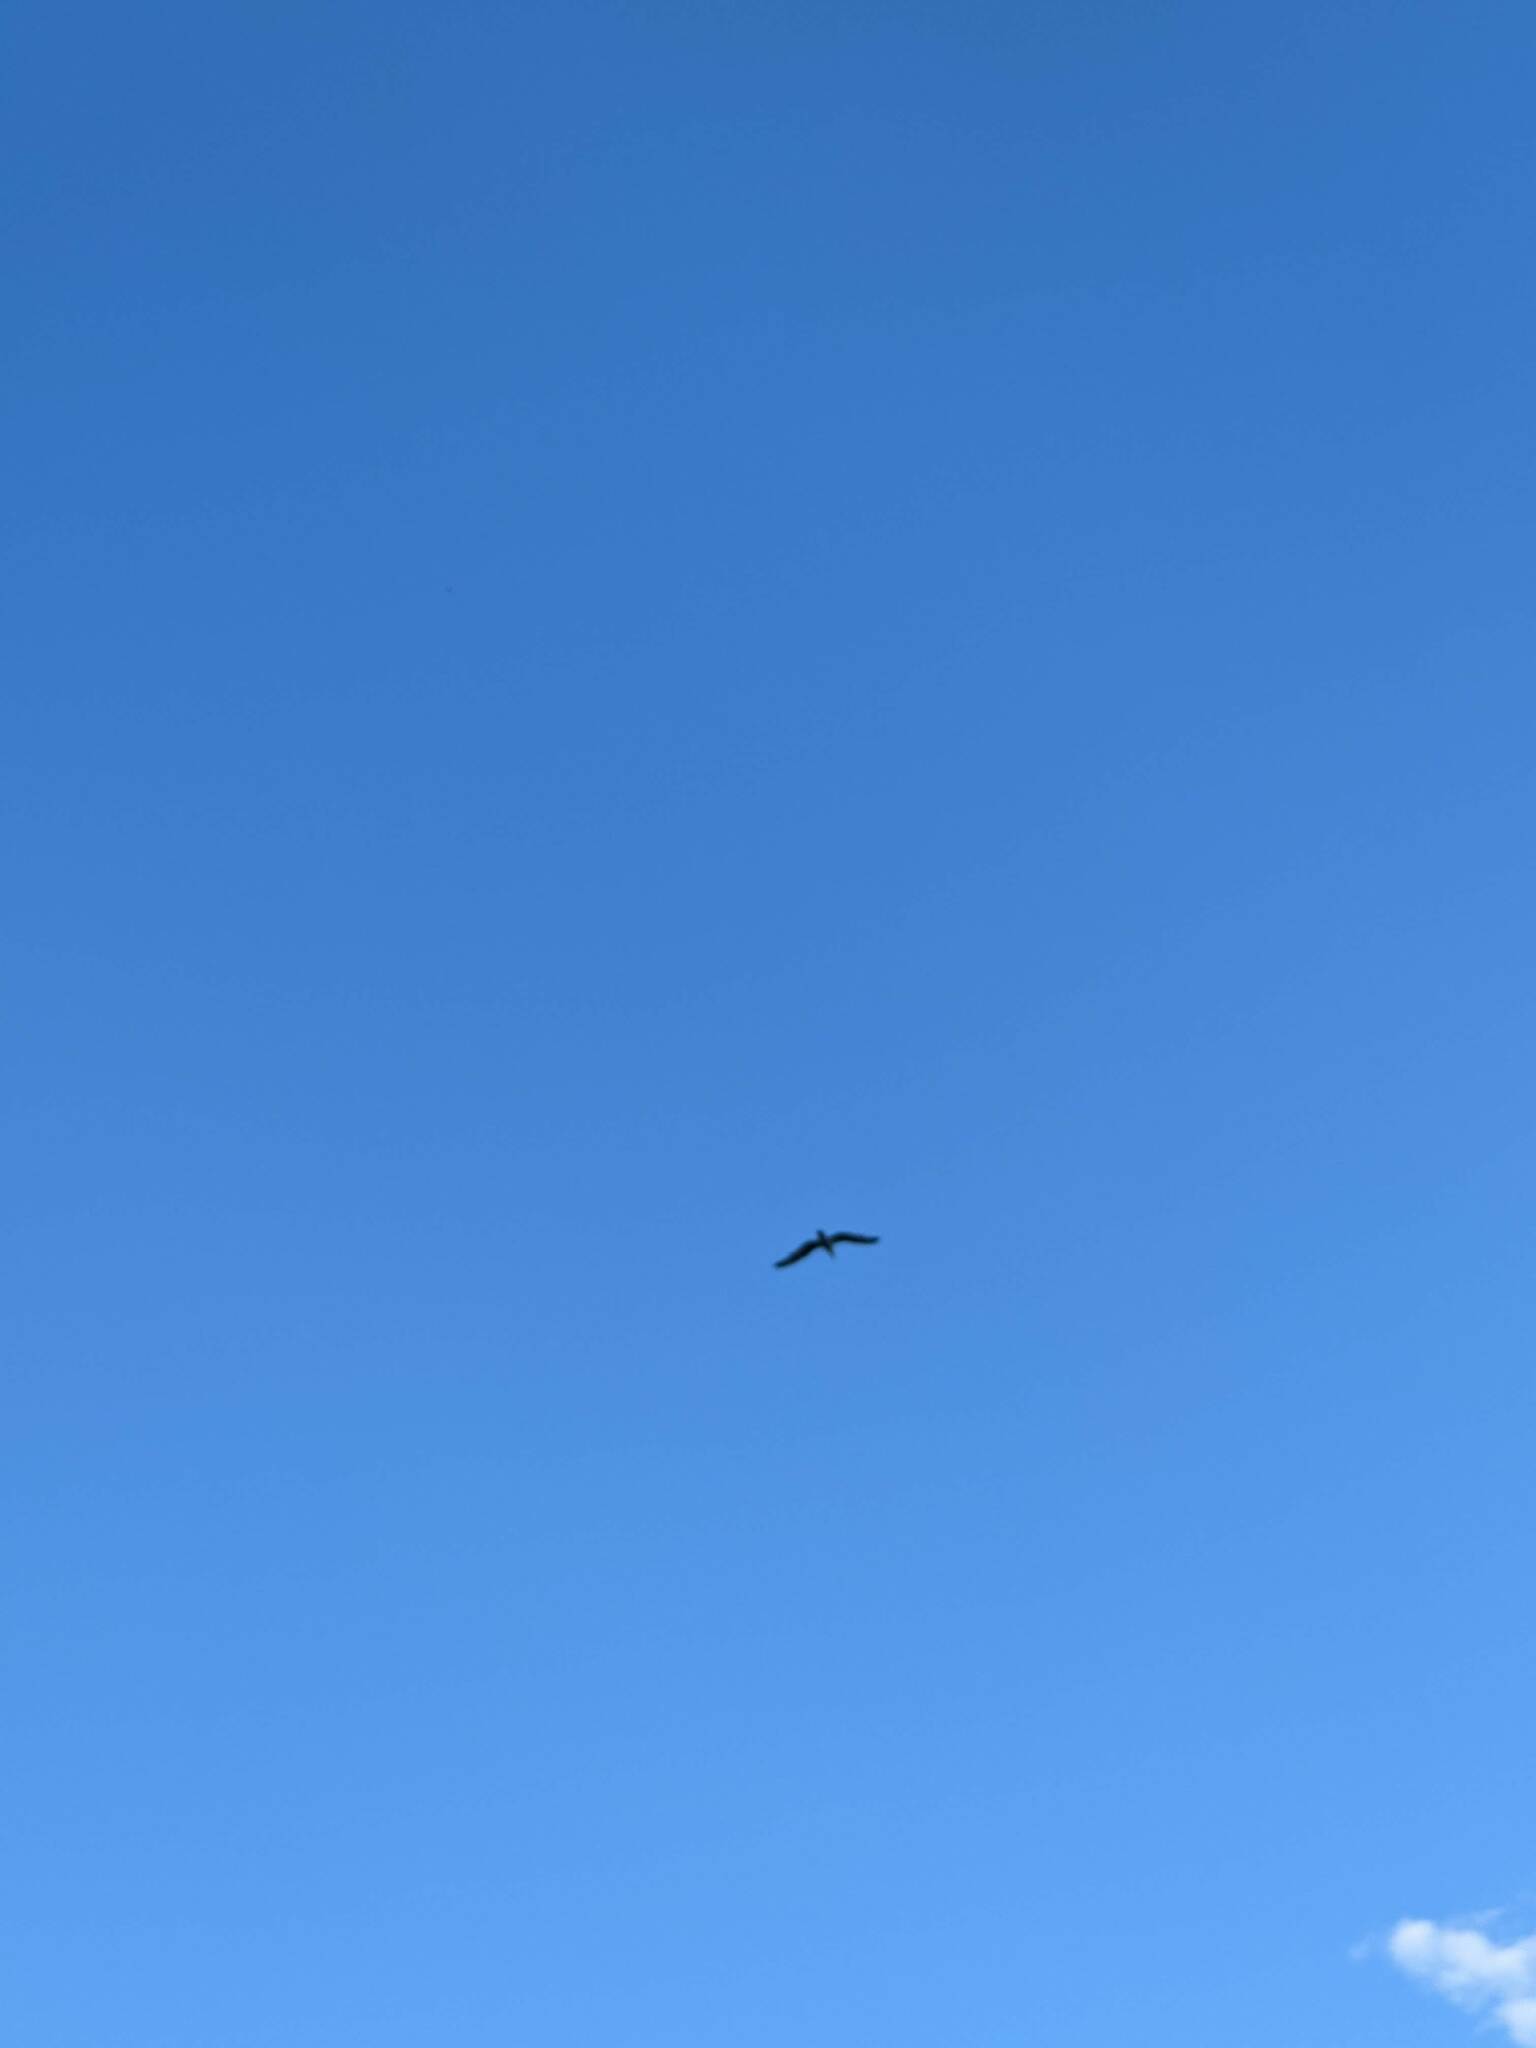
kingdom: Animalia
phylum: Chordata
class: Aves
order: Charadriiformes
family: Laridae
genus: Larus
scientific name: Larus
